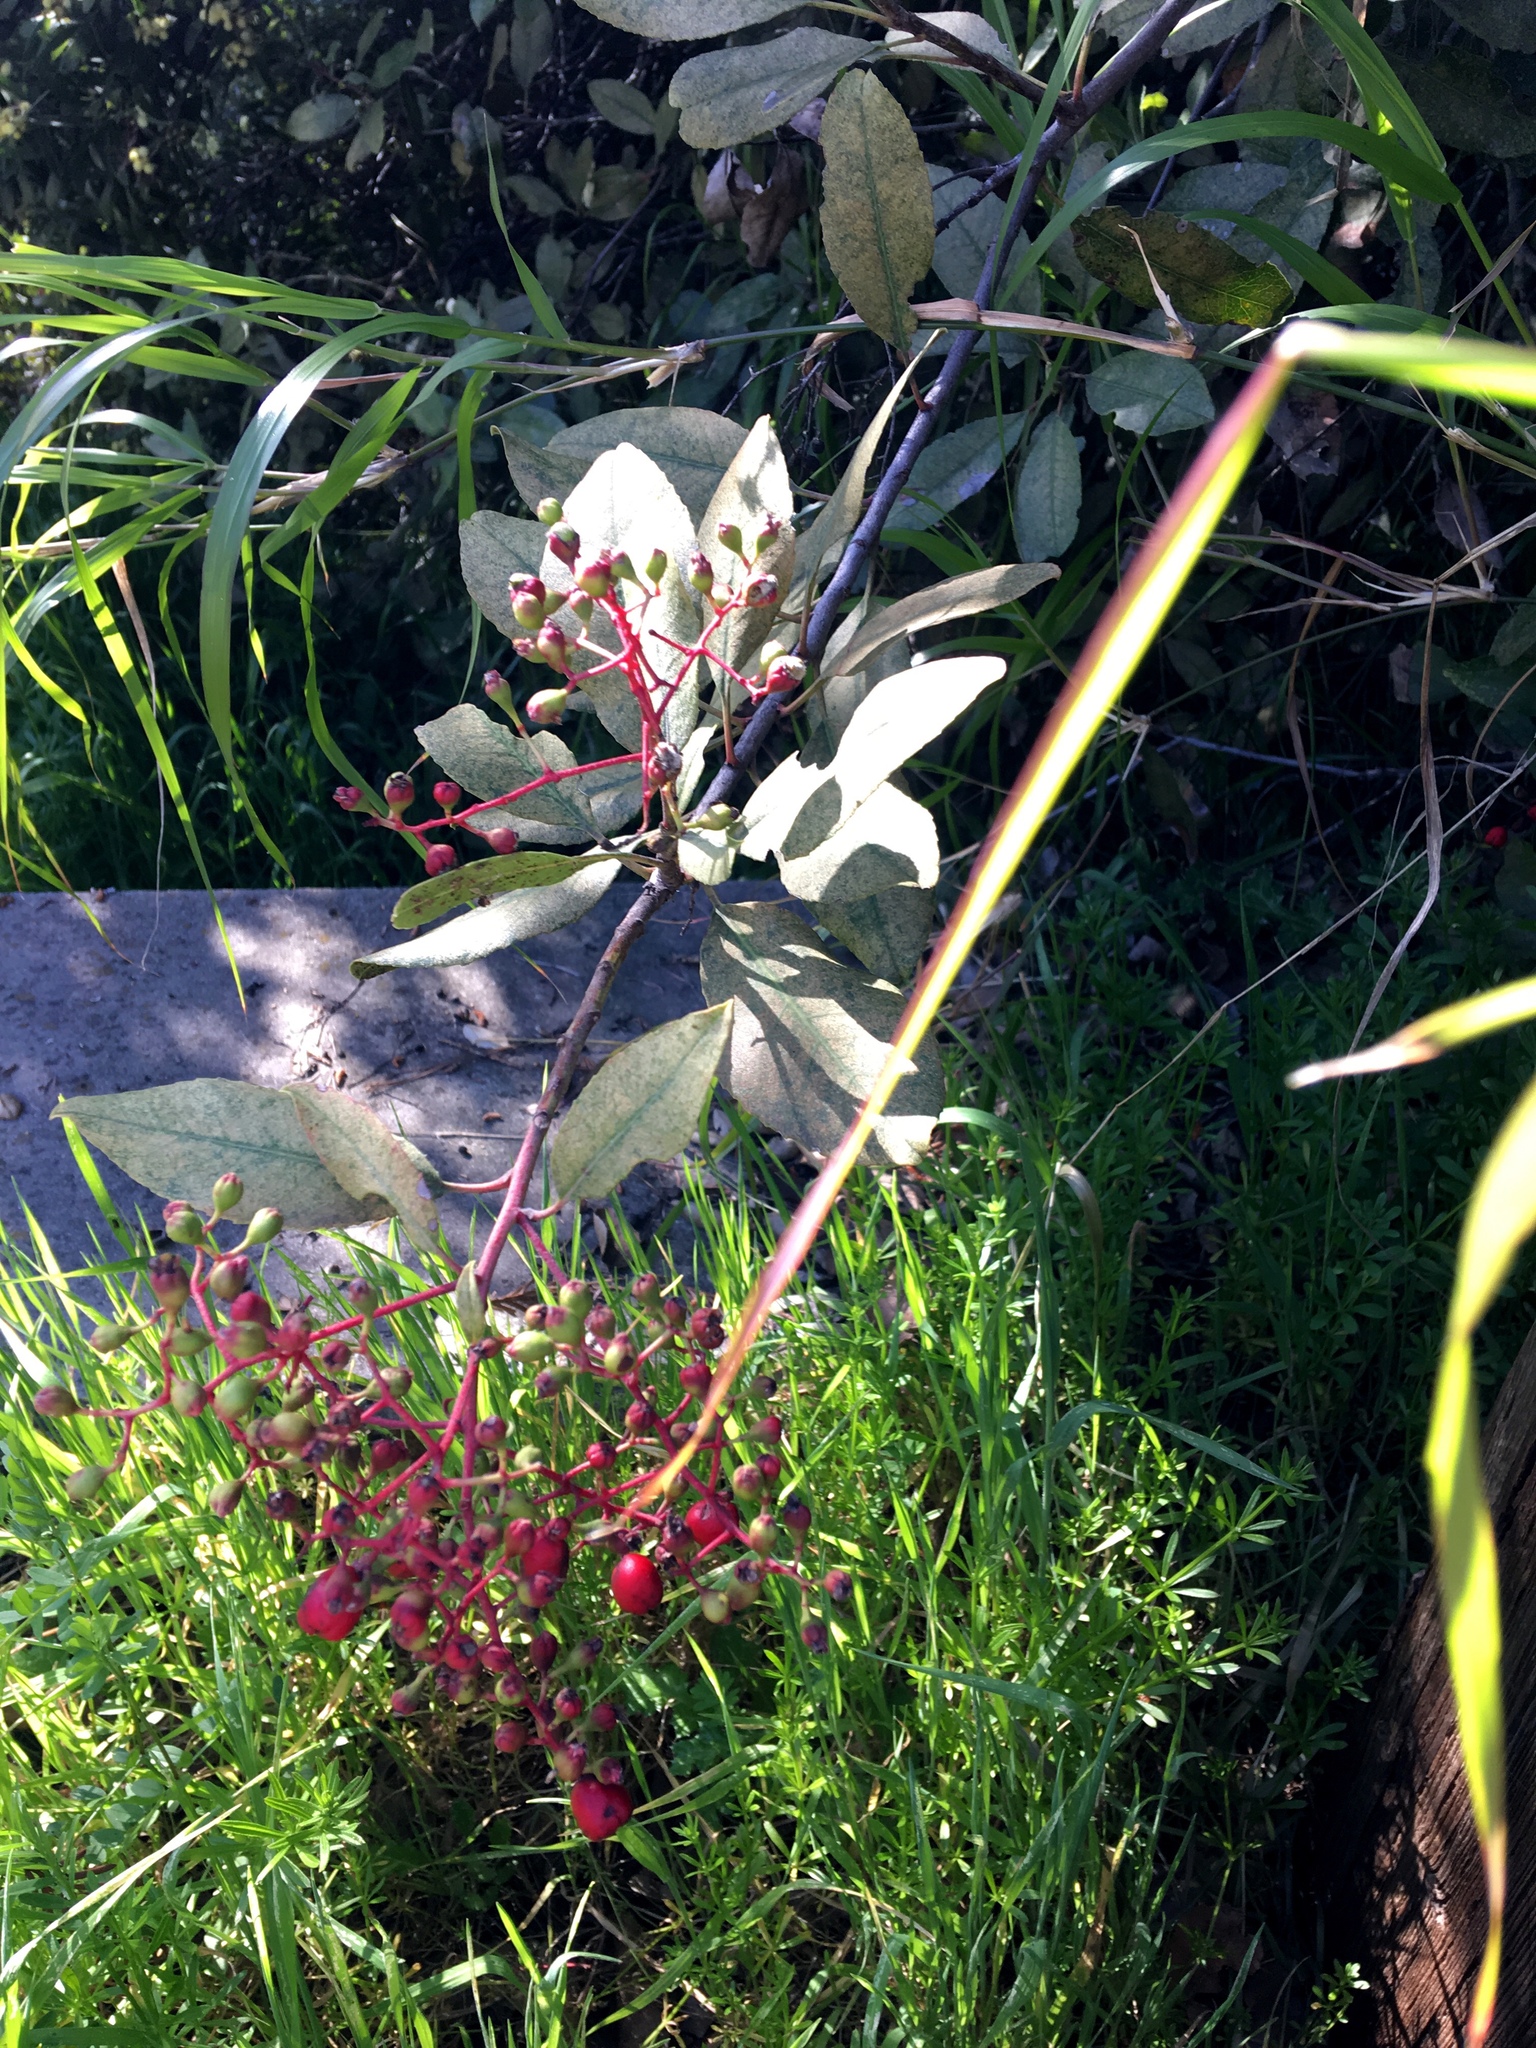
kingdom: Plantae
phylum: Tracheophyta
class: Magnoliopsida
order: Rosales
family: Rosaceae
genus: Heteromeles
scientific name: Heteromeles arbutifolia
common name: California-holly
